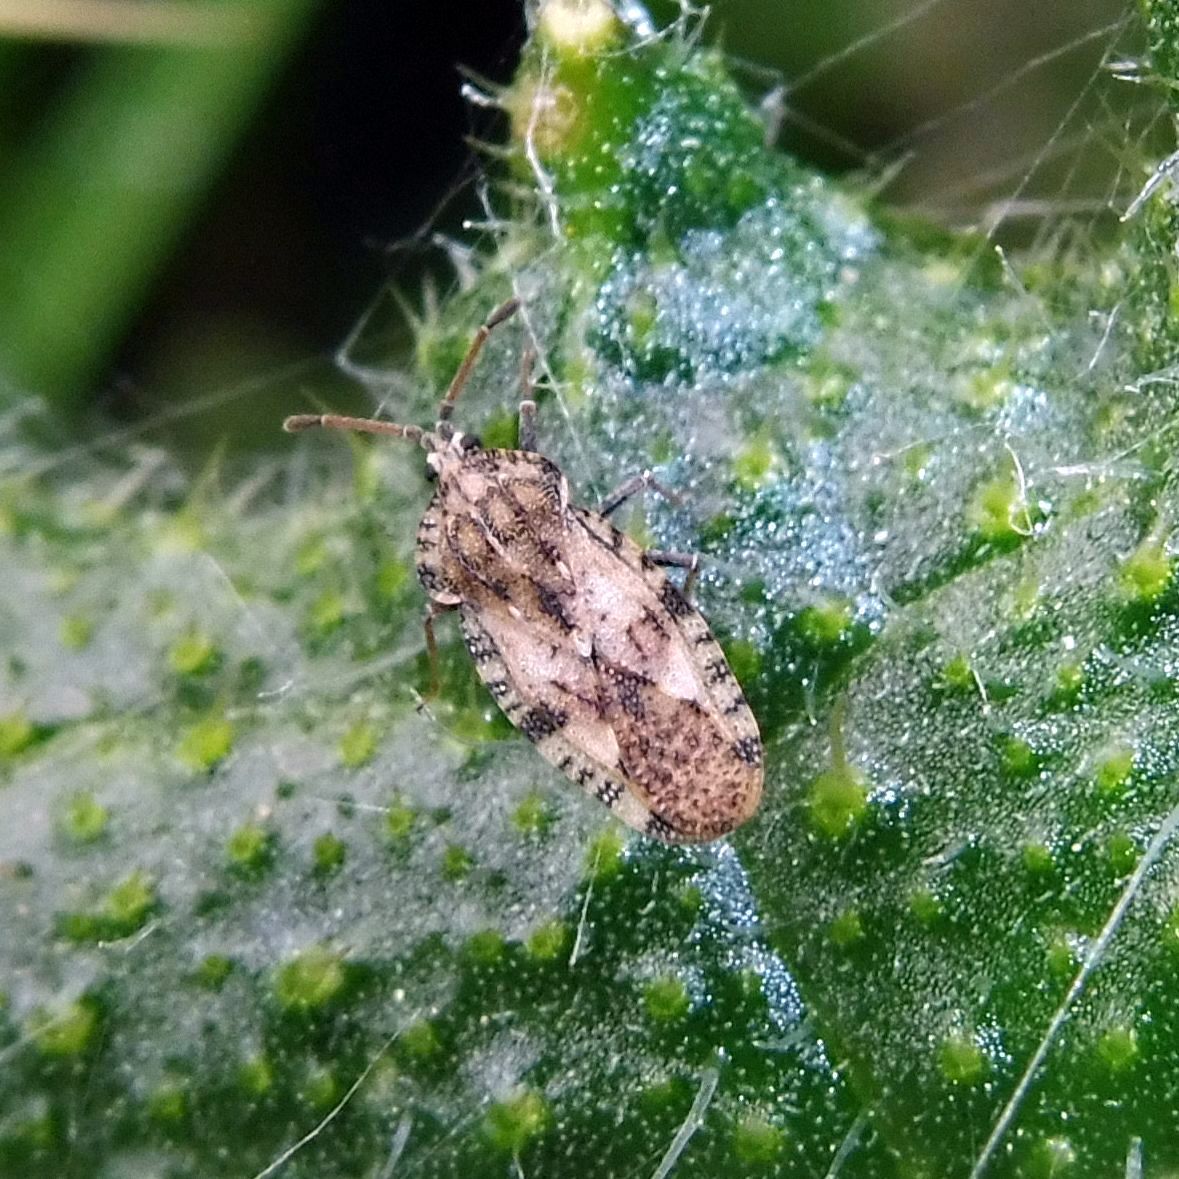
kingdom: Animalia
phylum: Arthropoda
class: Insecta
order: Hemiptera
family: Tingidae
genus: Tingis
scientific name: Tingis cardui
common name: Spear thistle lacebug
